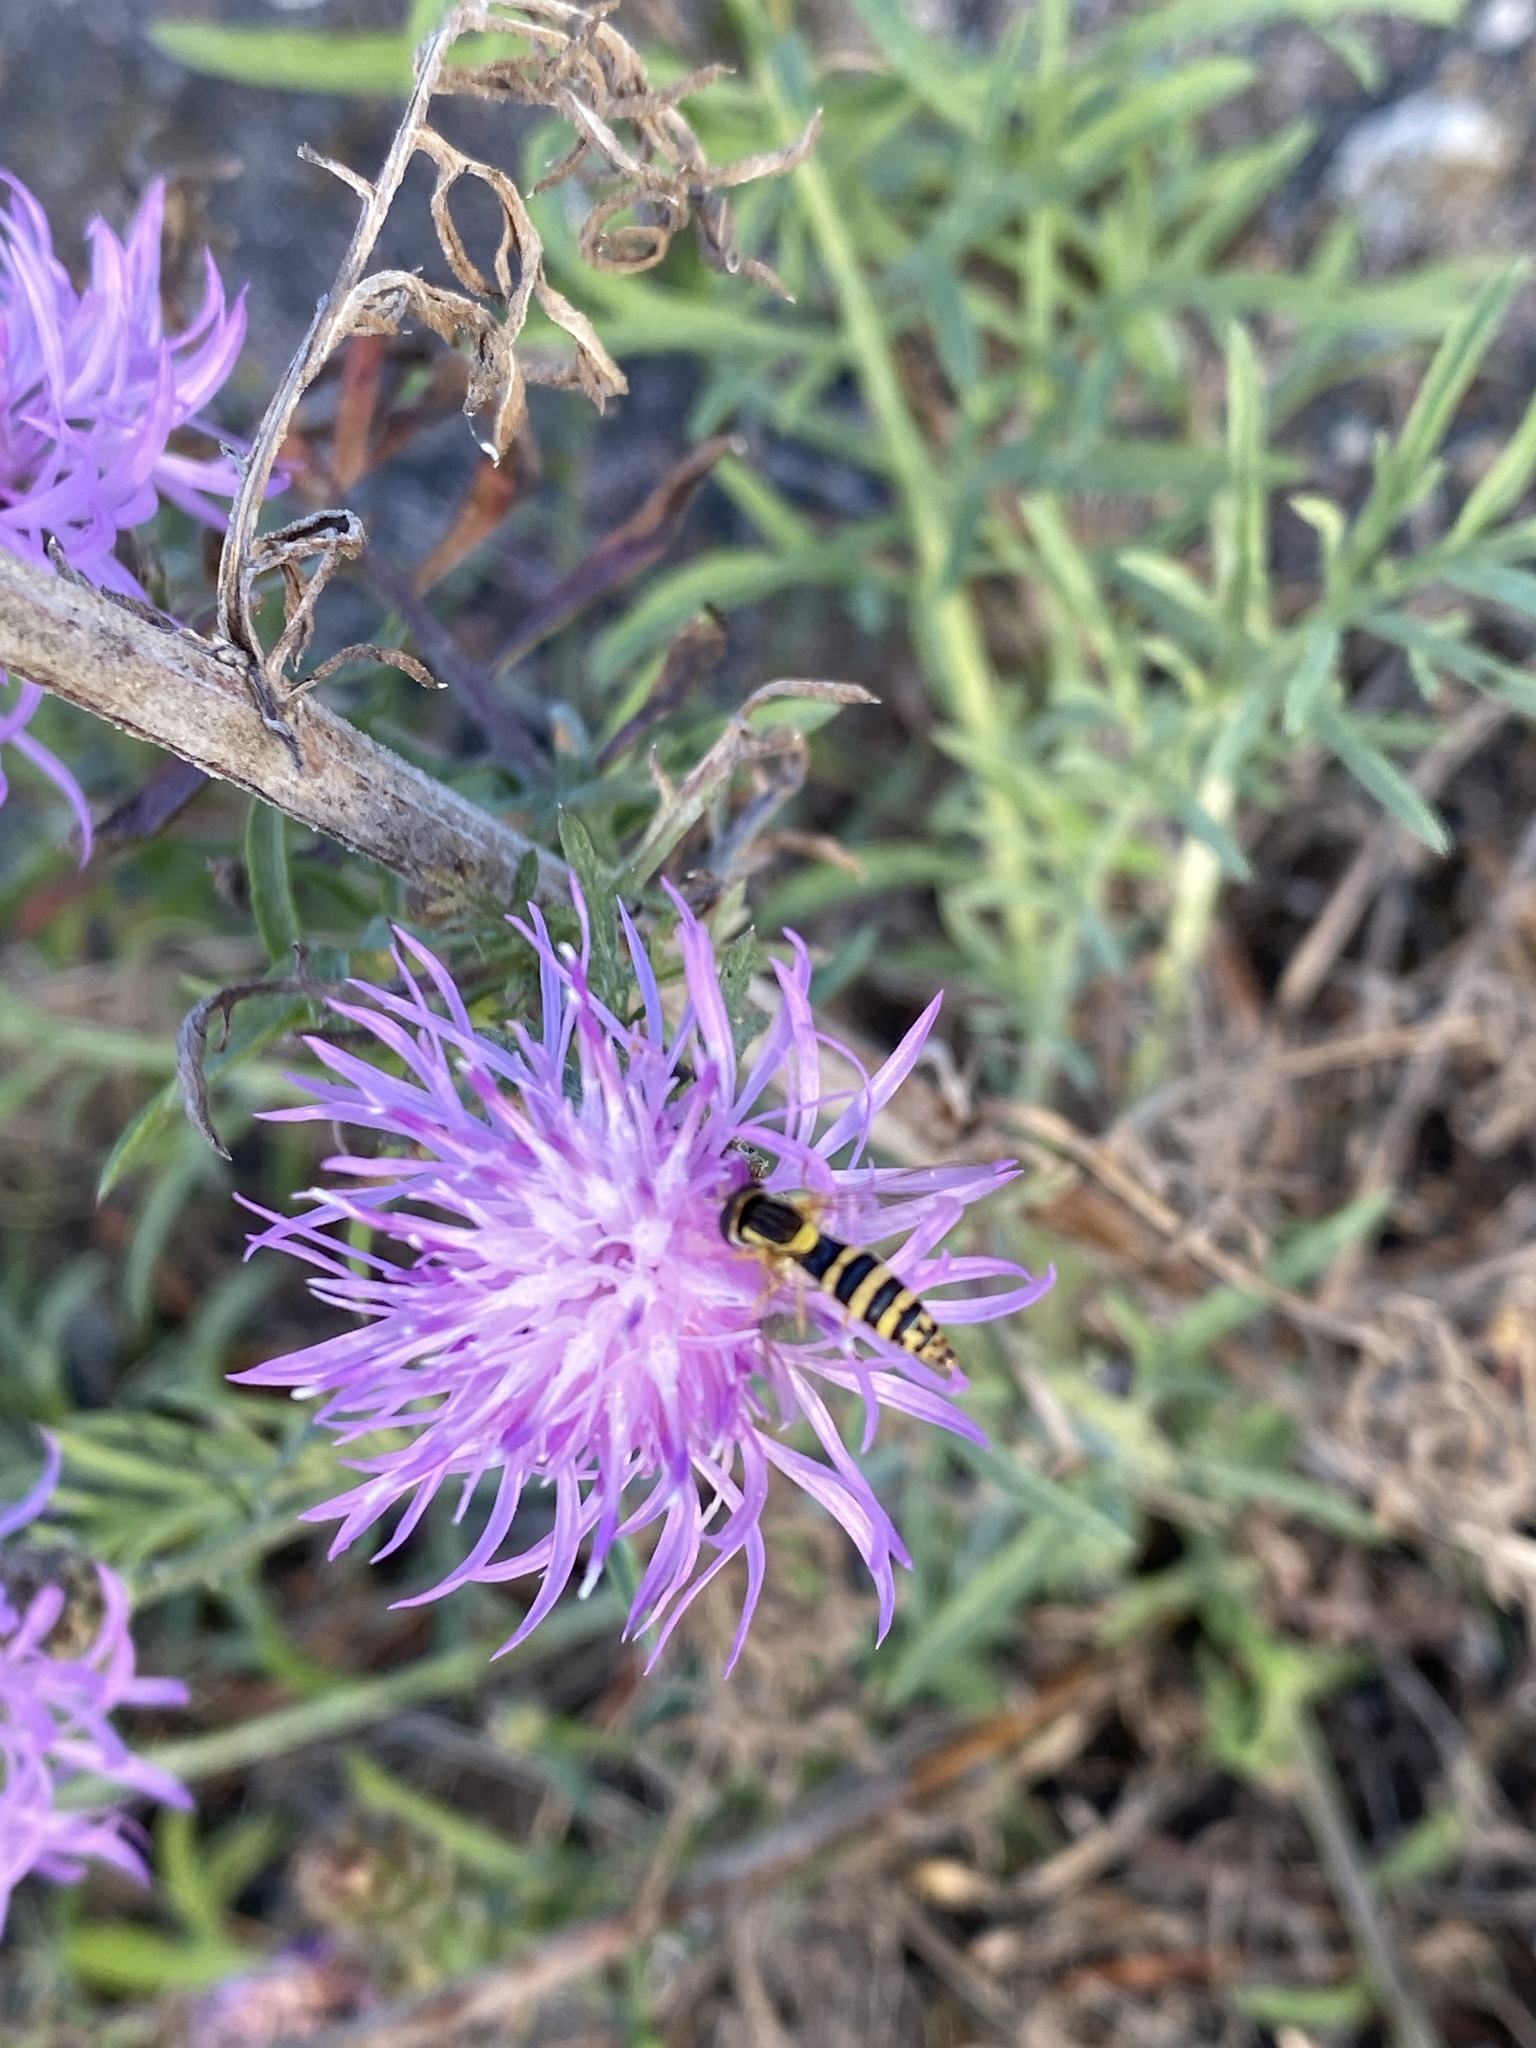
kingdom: Animalia
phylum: Arthropoda
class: Insecta
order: Diptera
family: Syrphidae
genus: Sphaerophoria
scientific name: Sphaerophoria scripta
